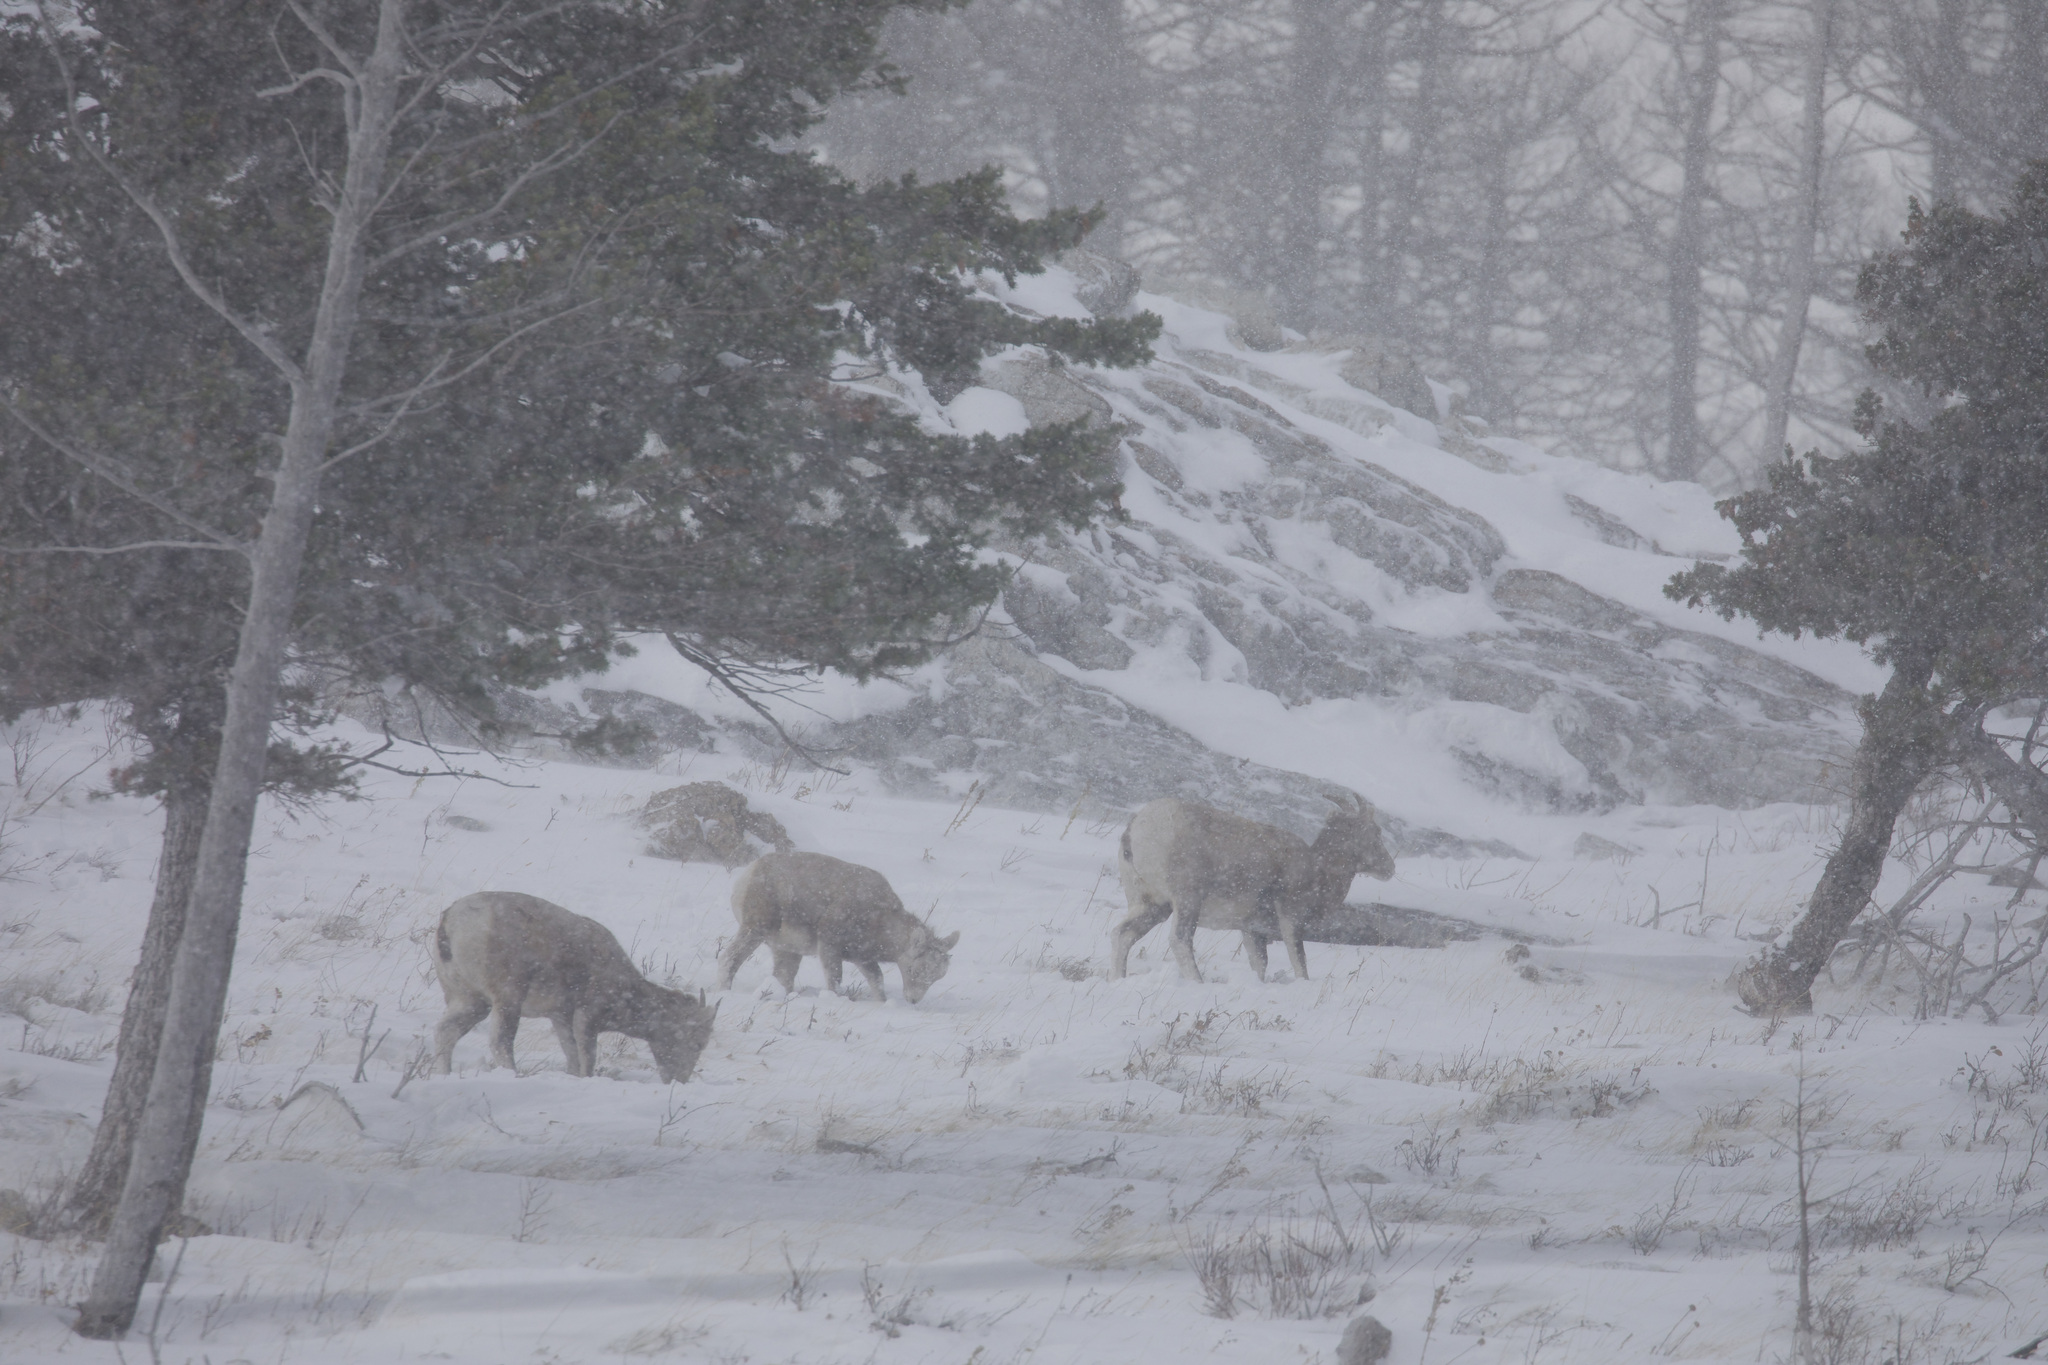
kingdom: Animalia
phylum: Chordata
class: Mammalia
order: Artiodactyla
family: Bovidae
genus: Ovis
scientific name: Ovis canadensis
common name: Bighorn sheep
